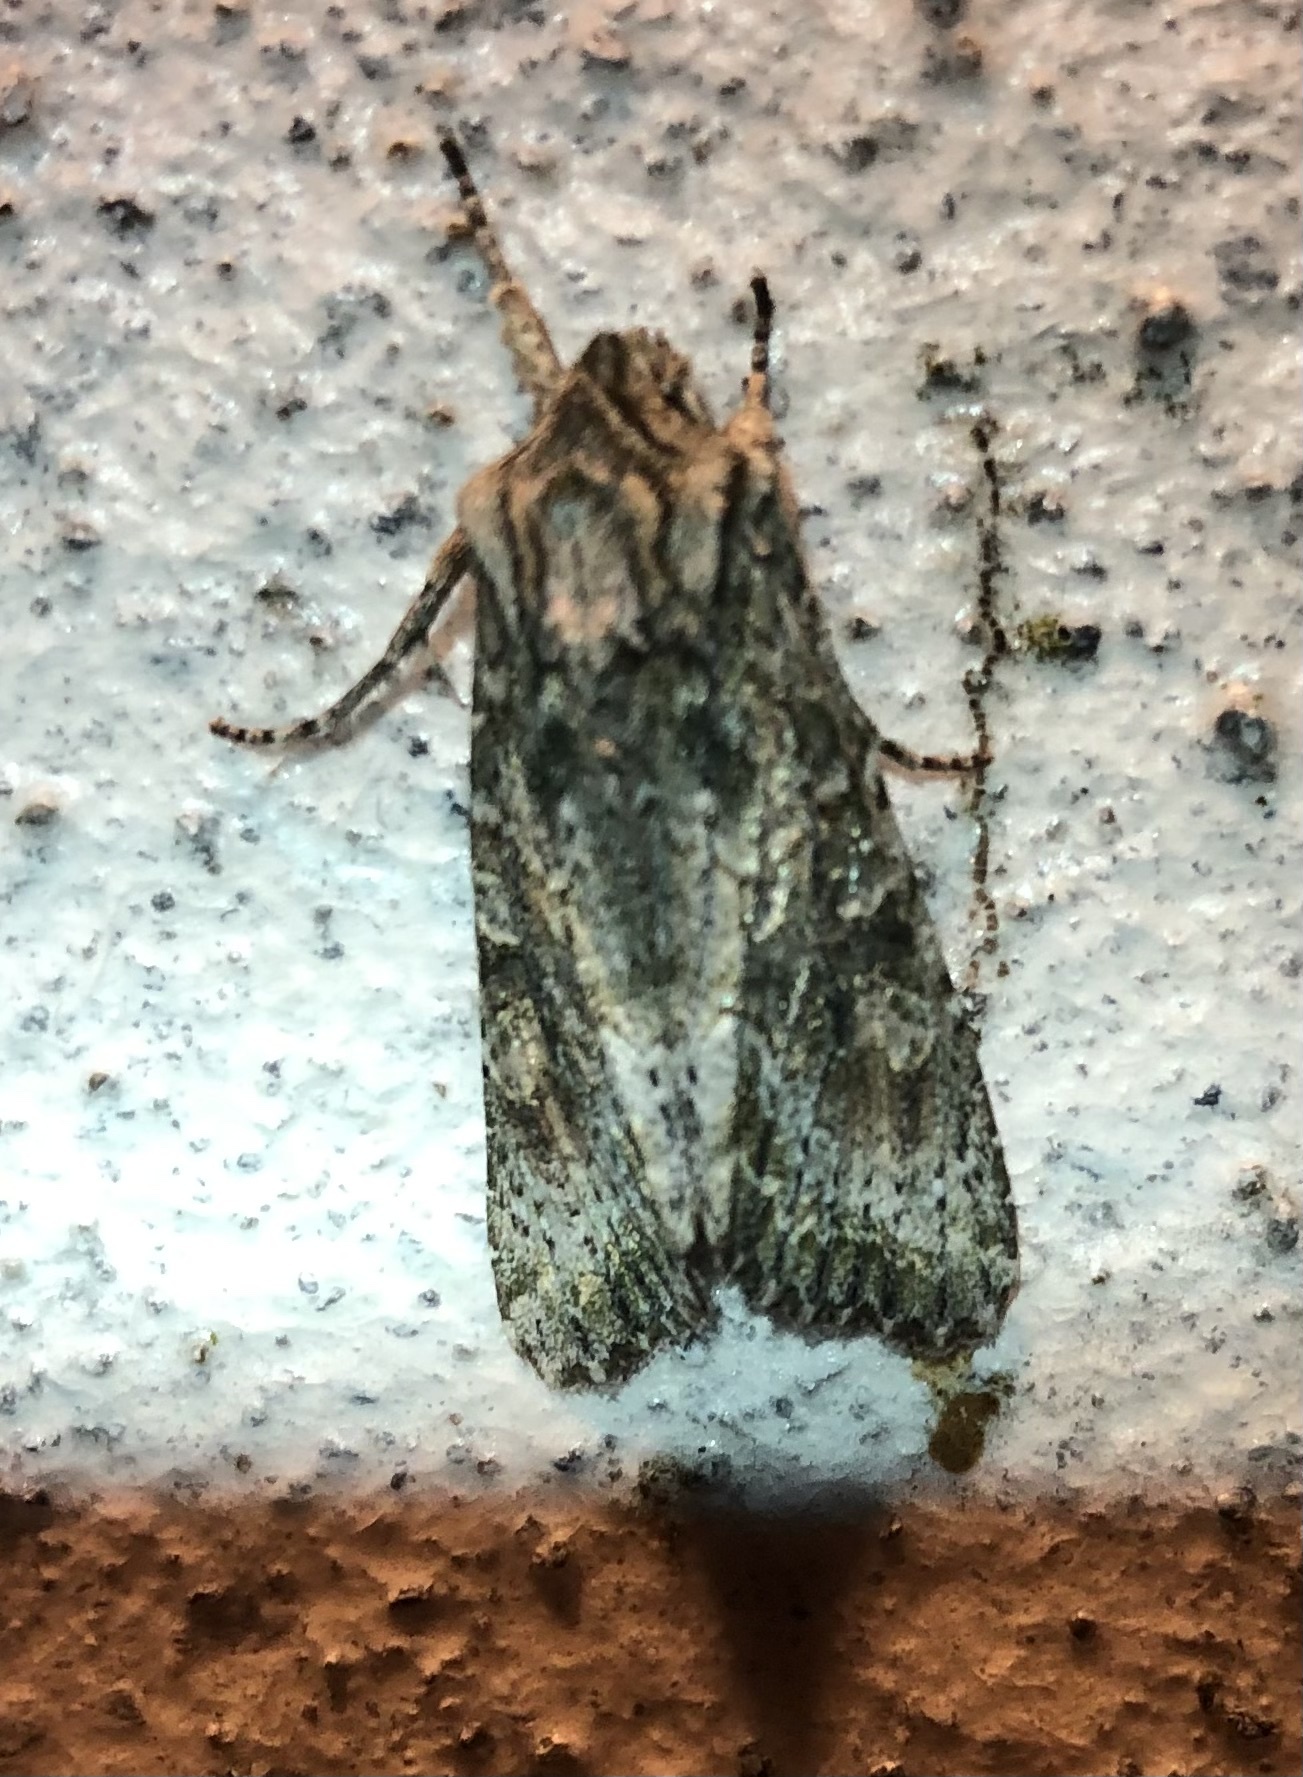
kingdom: Animalia
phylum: Arthropoda
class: Insecta
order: Lepidoptera
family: Noctuidae
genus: Ichneutica
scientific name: Ichneutica mutans
